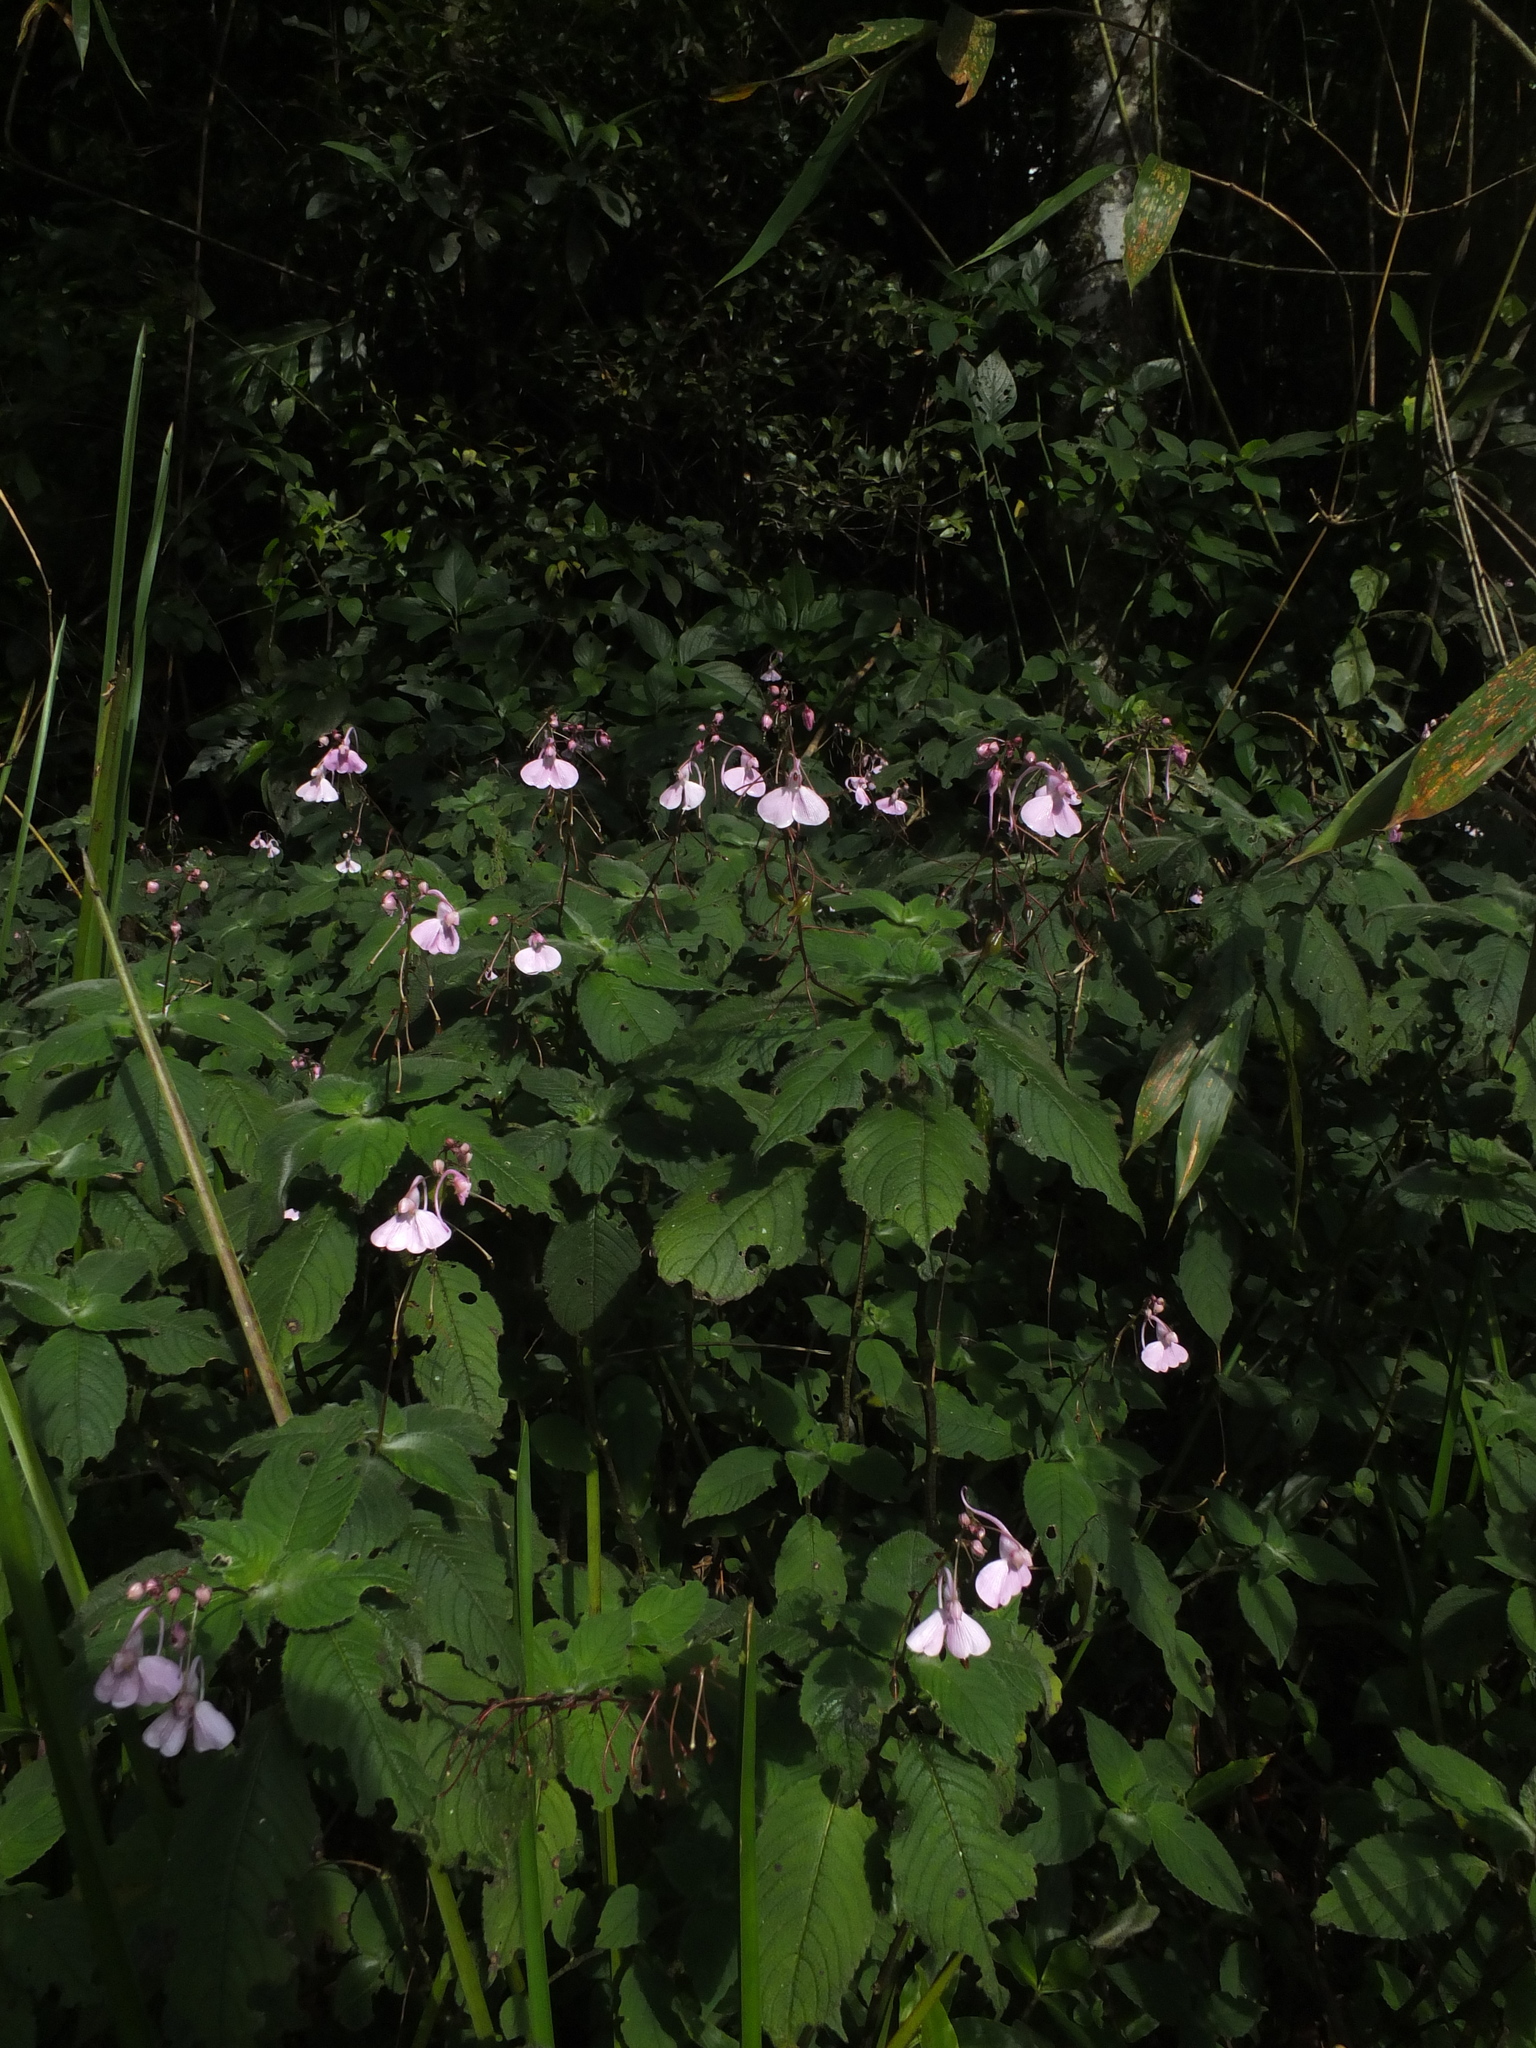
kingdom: Plantae
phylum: Tracheophyta
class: Magnoliopsida
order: Ericales
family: Balsaminaceae
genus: Impatiens
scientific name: Impatiens maculata
